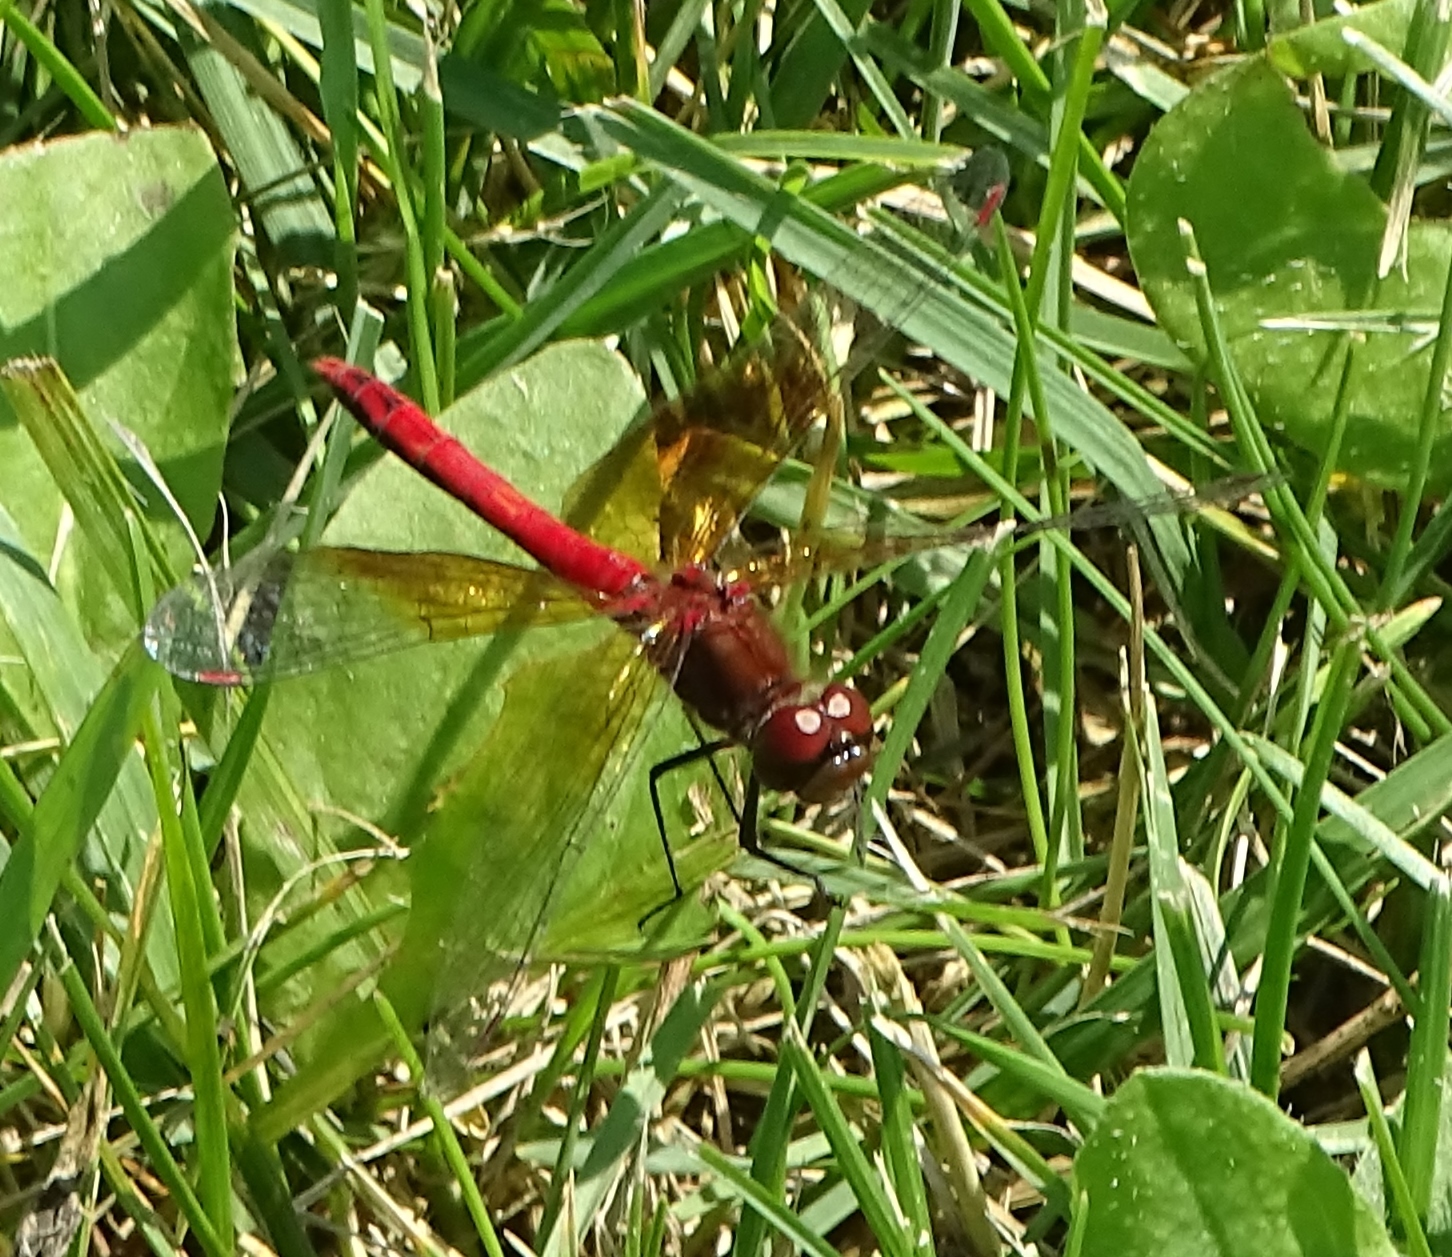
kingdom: Animalia
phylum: Arthropoda
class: Insecta
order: Odonata
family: Libellulidae
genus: Sympetrum
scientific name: Sympetrum semicinctum
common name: Band-winged meadowhawk
